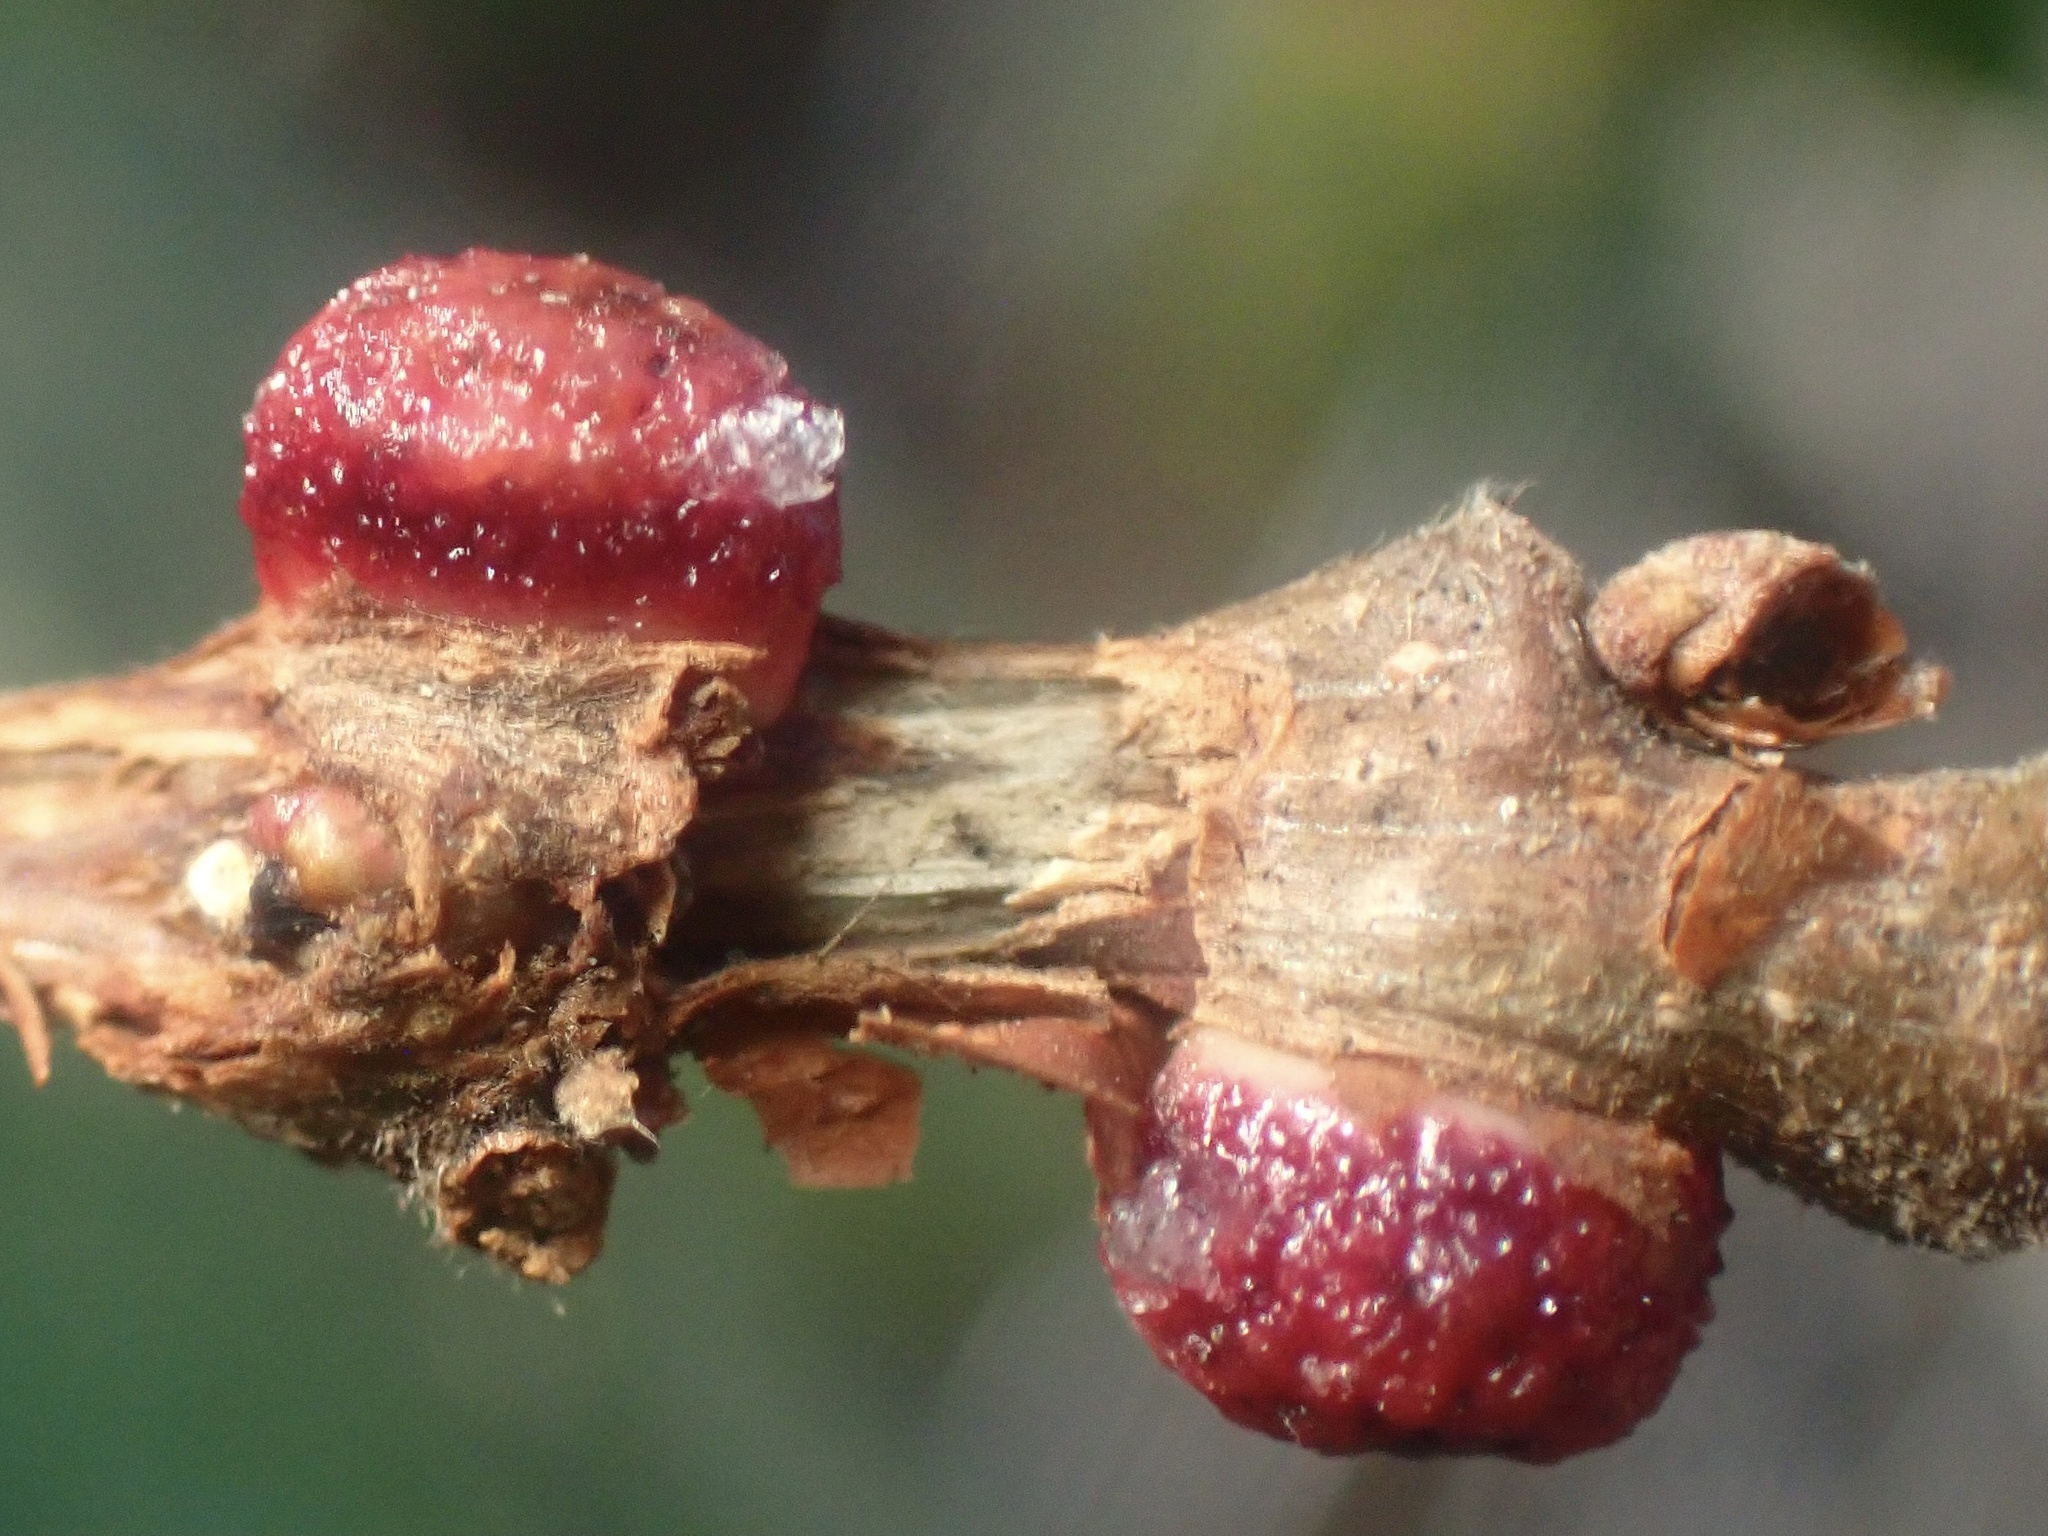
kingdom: Animalia
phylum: Arthropoda
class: Insecta
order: Hymenoptera
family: Cynipidae
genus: Disholcaspis
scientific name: Disholcaspis
